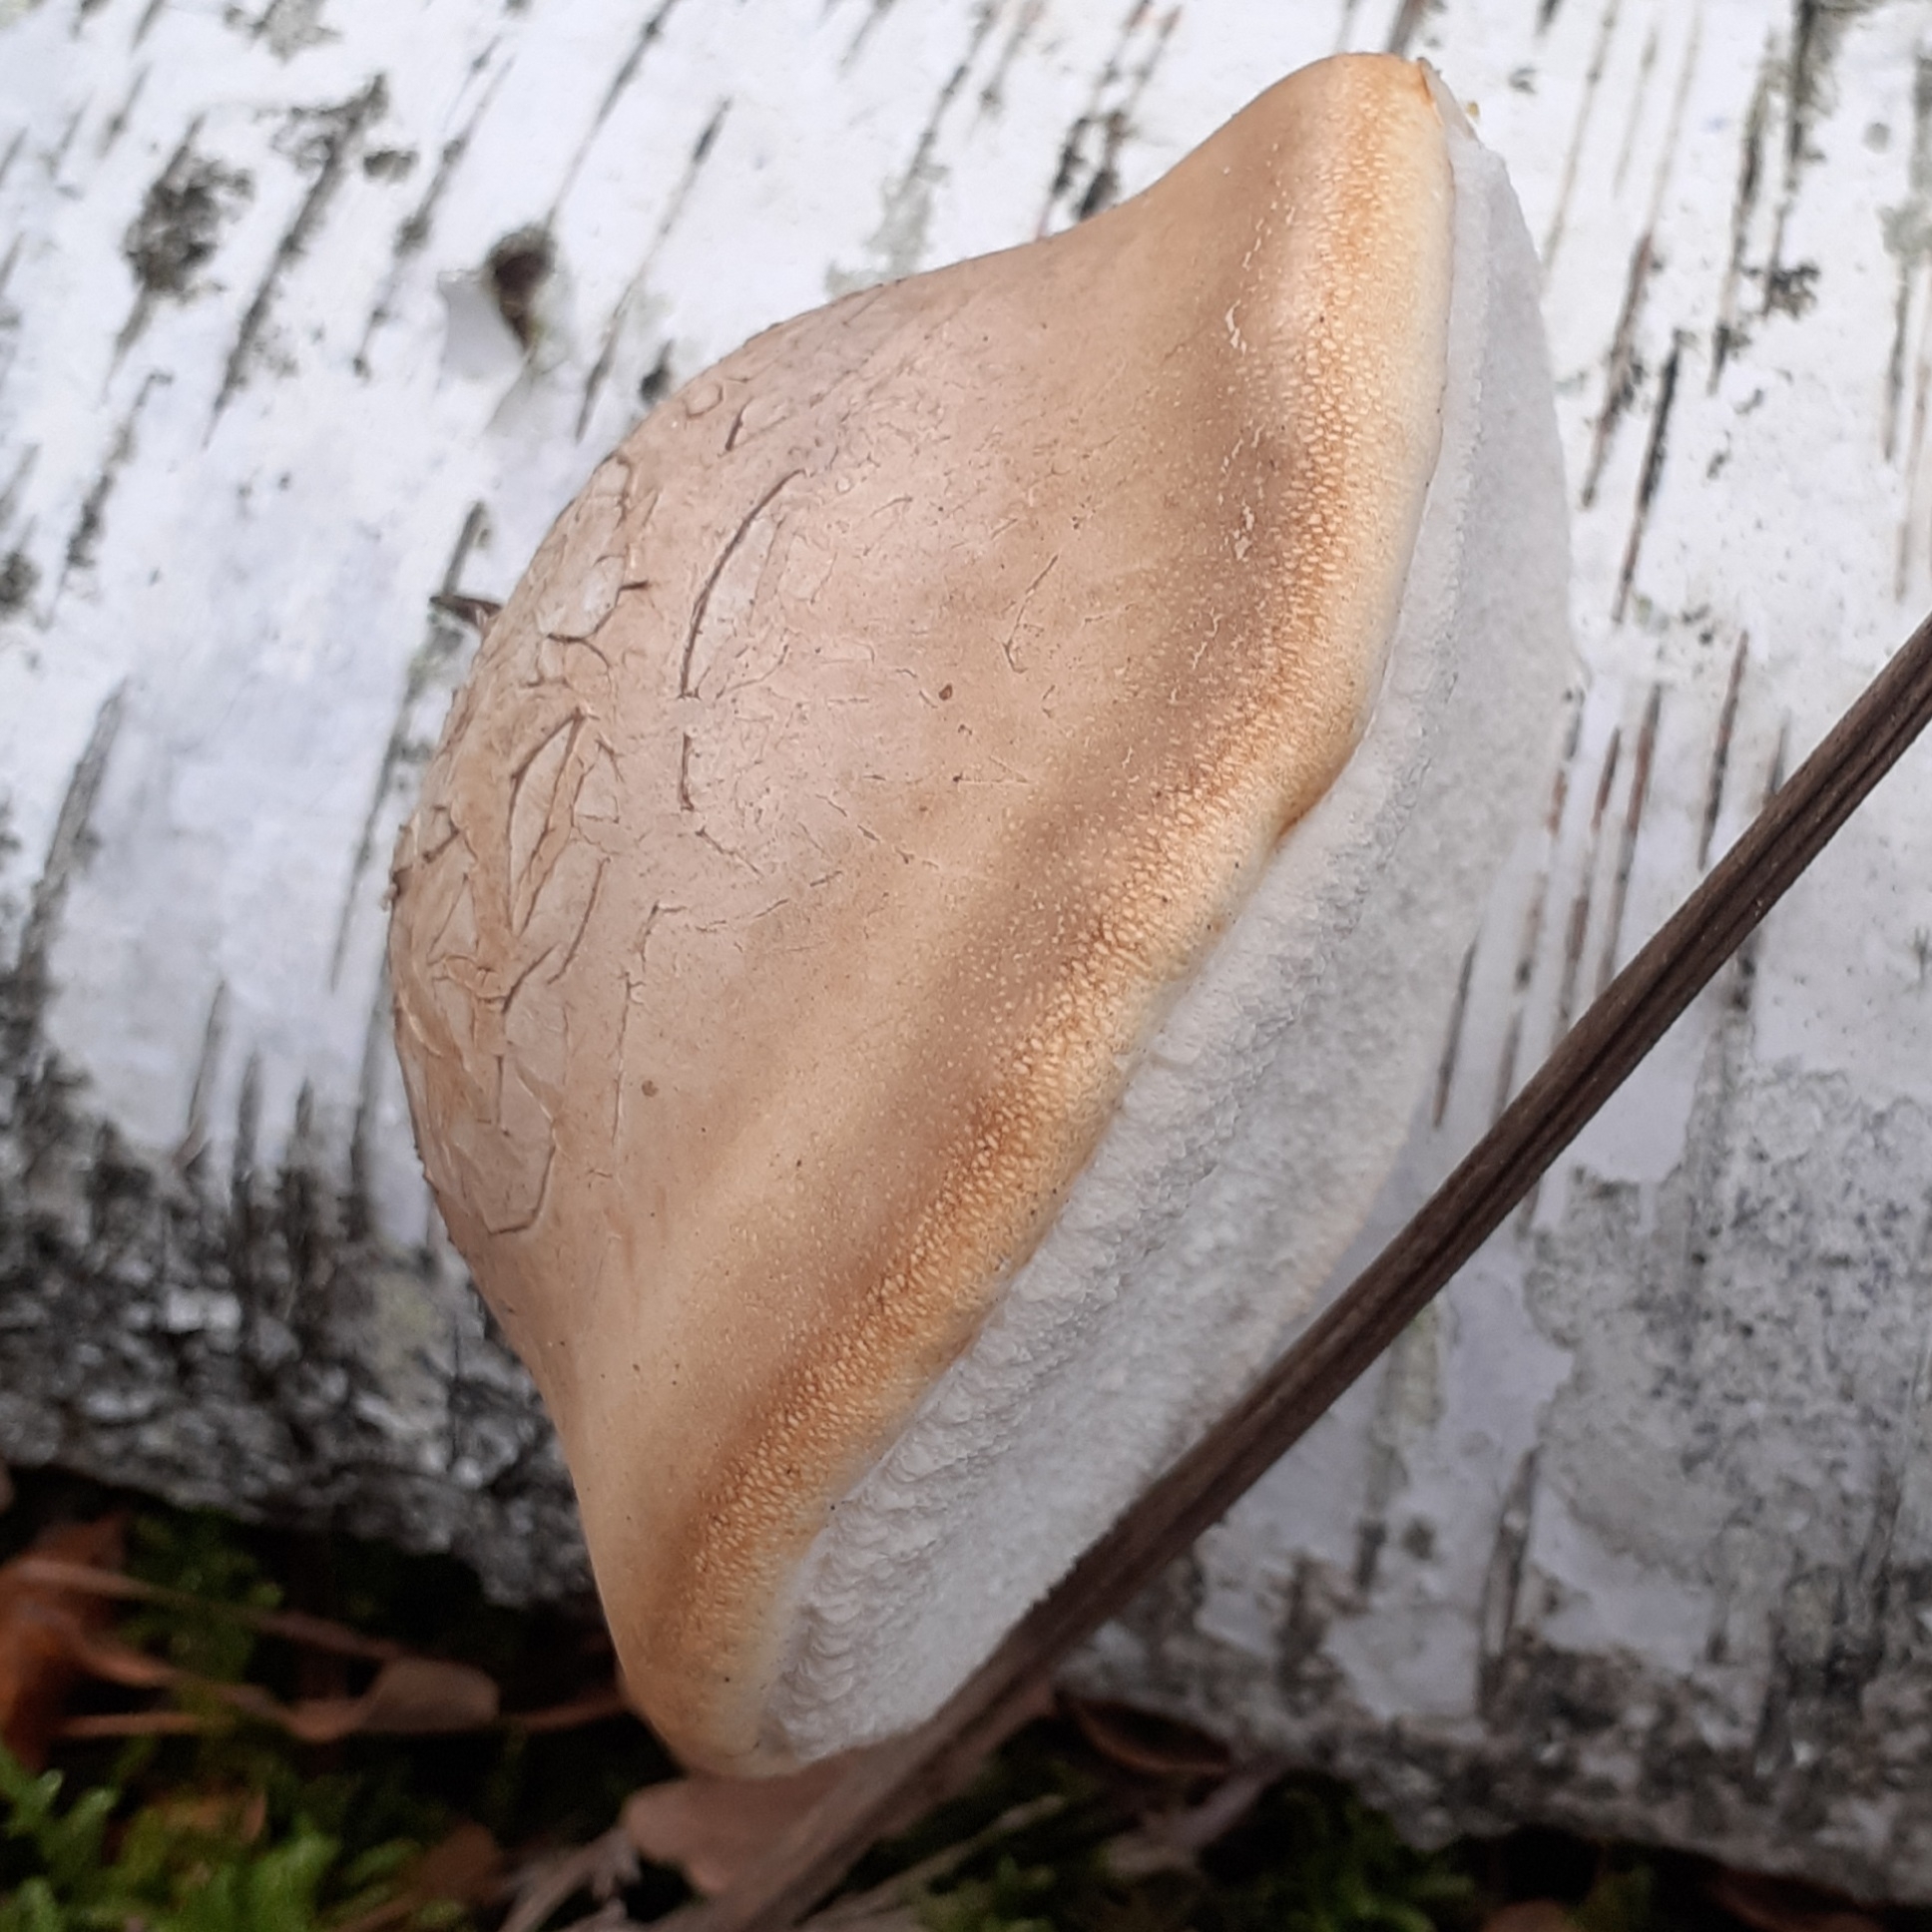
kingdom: Fungi
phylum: Basidiomycota
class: Agaricomycetes
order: Polyporales
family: Fomitopsidaceae
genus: Fomitopsis
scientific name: Fomitopsis betulina
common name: Birch polypore
